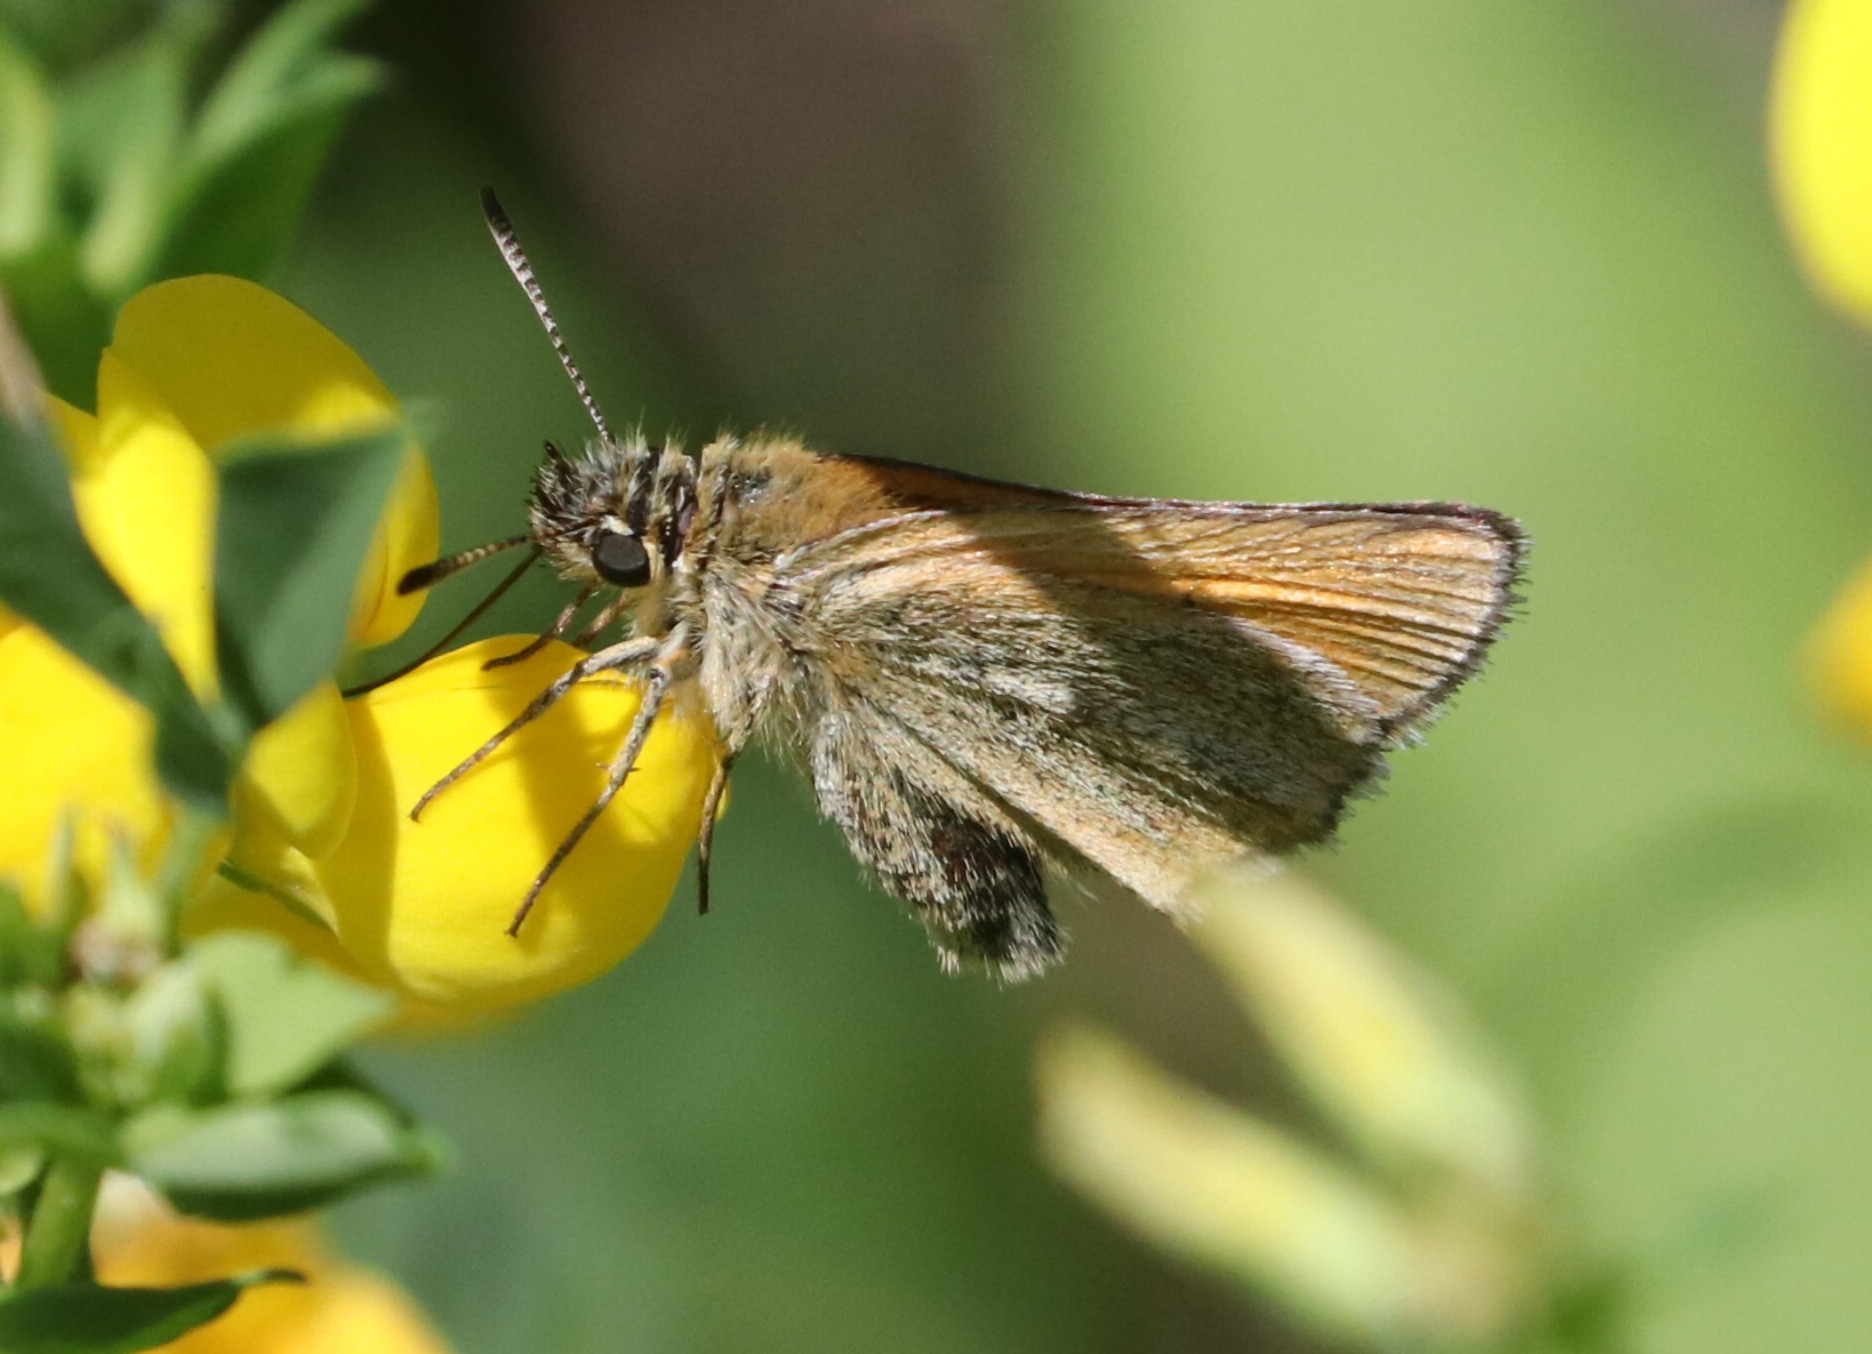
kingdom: Animalia
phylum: Arthropoda
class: Insecta
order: Lepidoptera
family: Hesperiidae
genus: Thymelicus
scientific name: Thymelicus lineola
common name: Essex skipper
